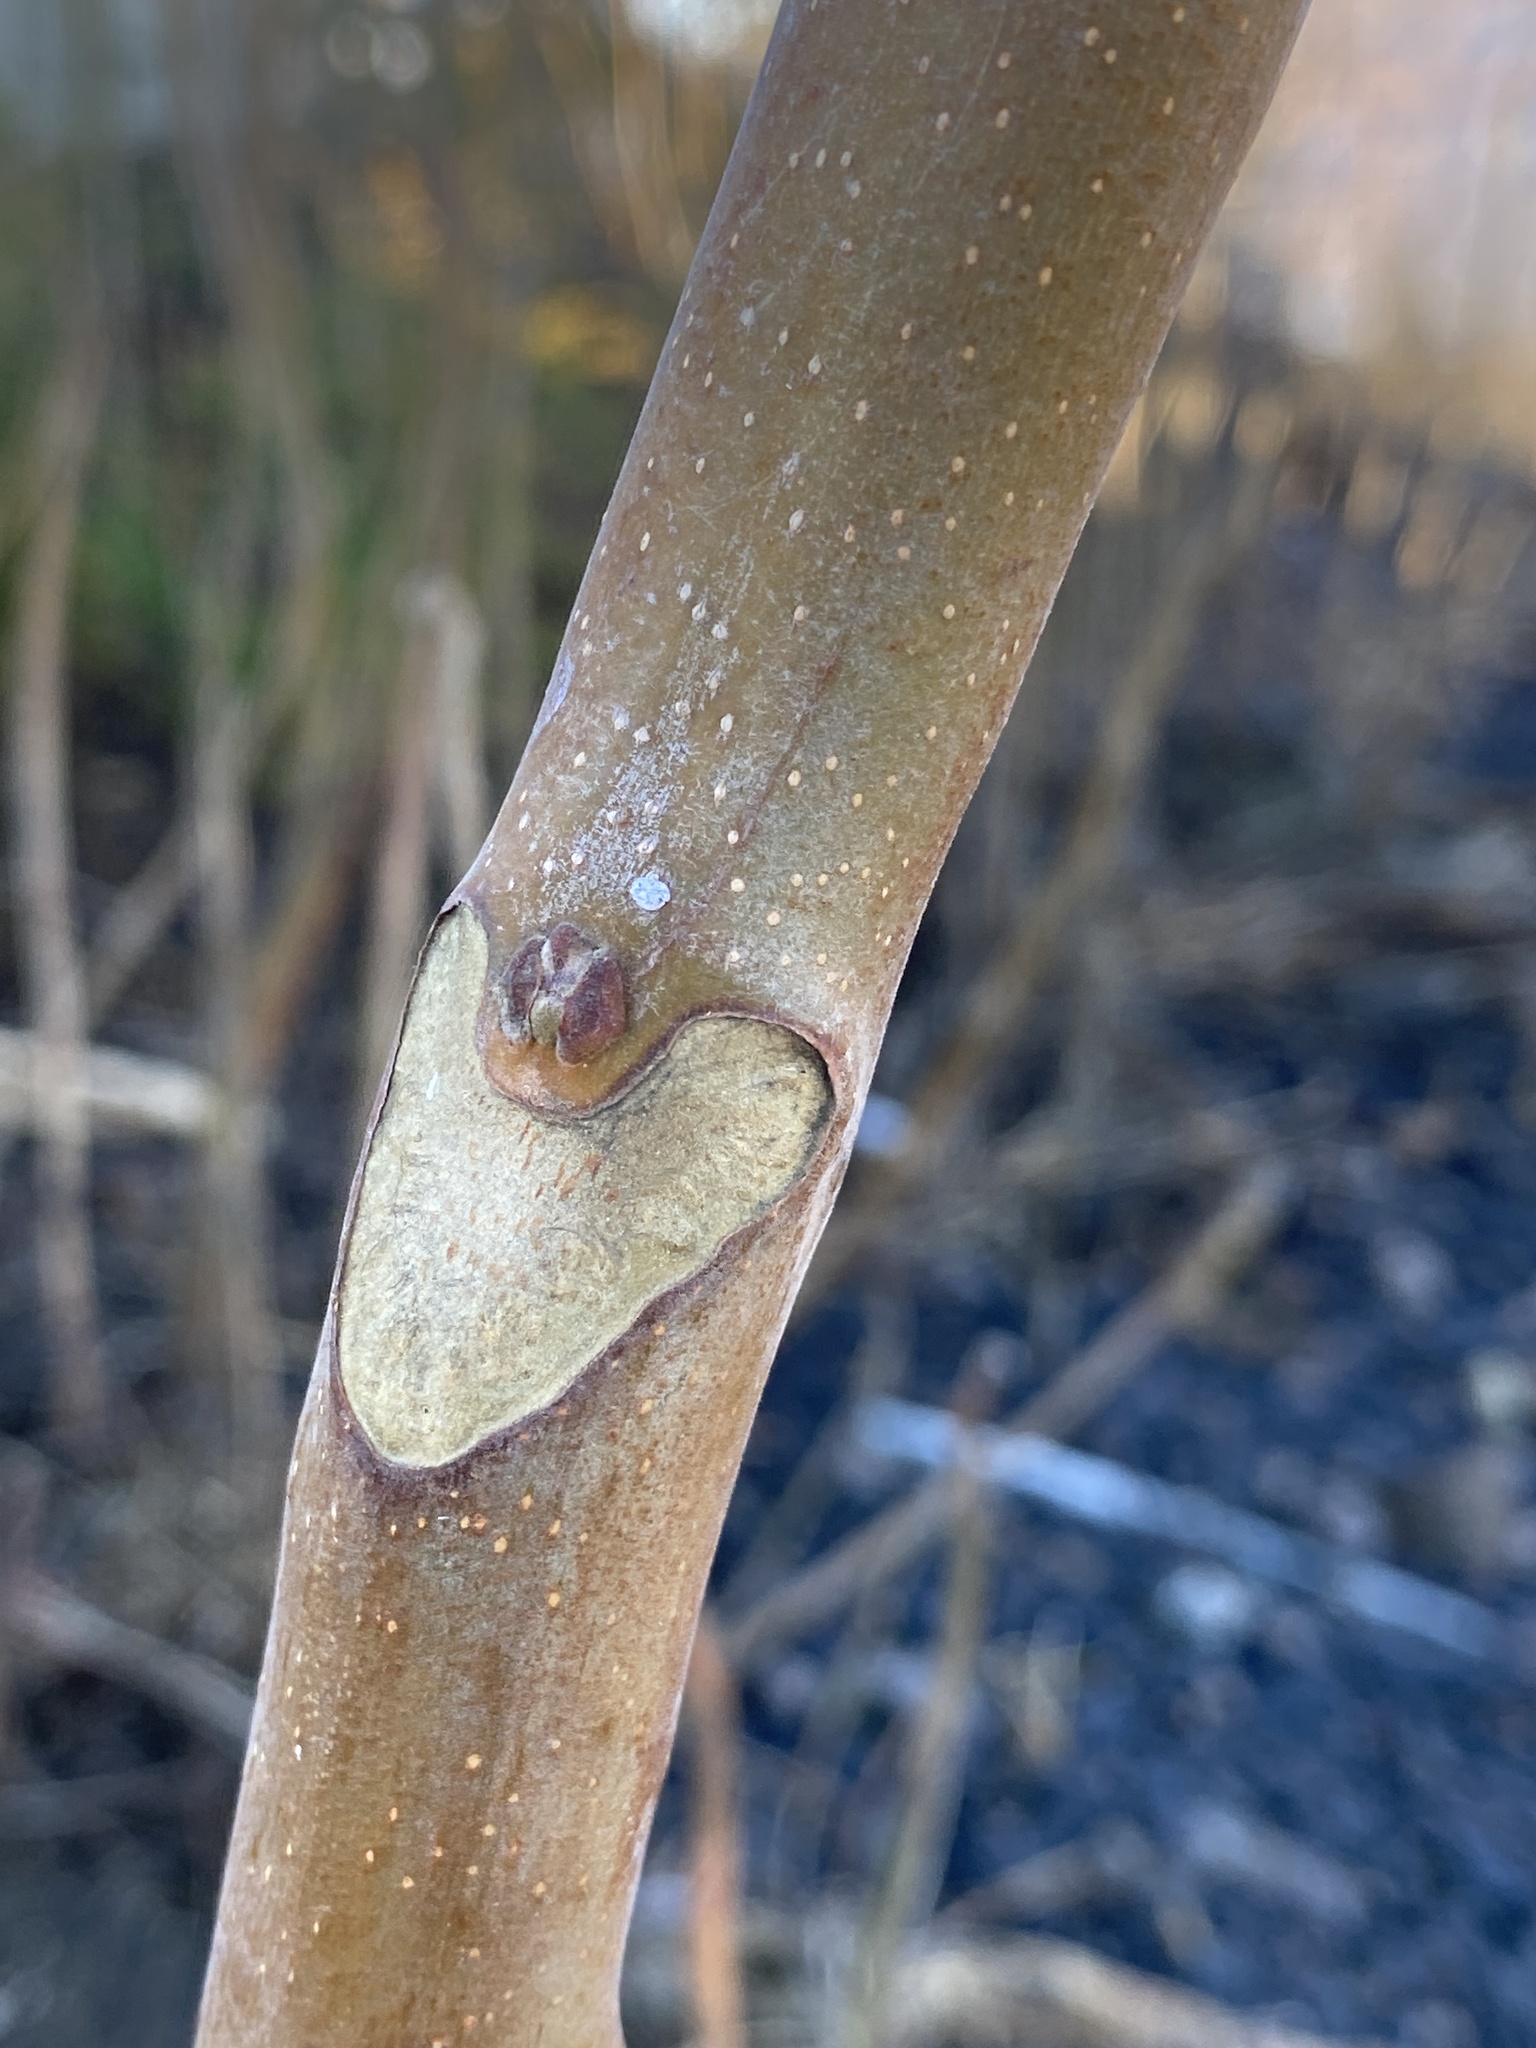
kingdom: Plantae
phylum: Tracheophyta
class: Magnoliopsida
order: Sapindales
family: Simaroubaceae
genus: Ailanthus
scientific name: Ailanthus altissima
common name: Tree-of-heaven
